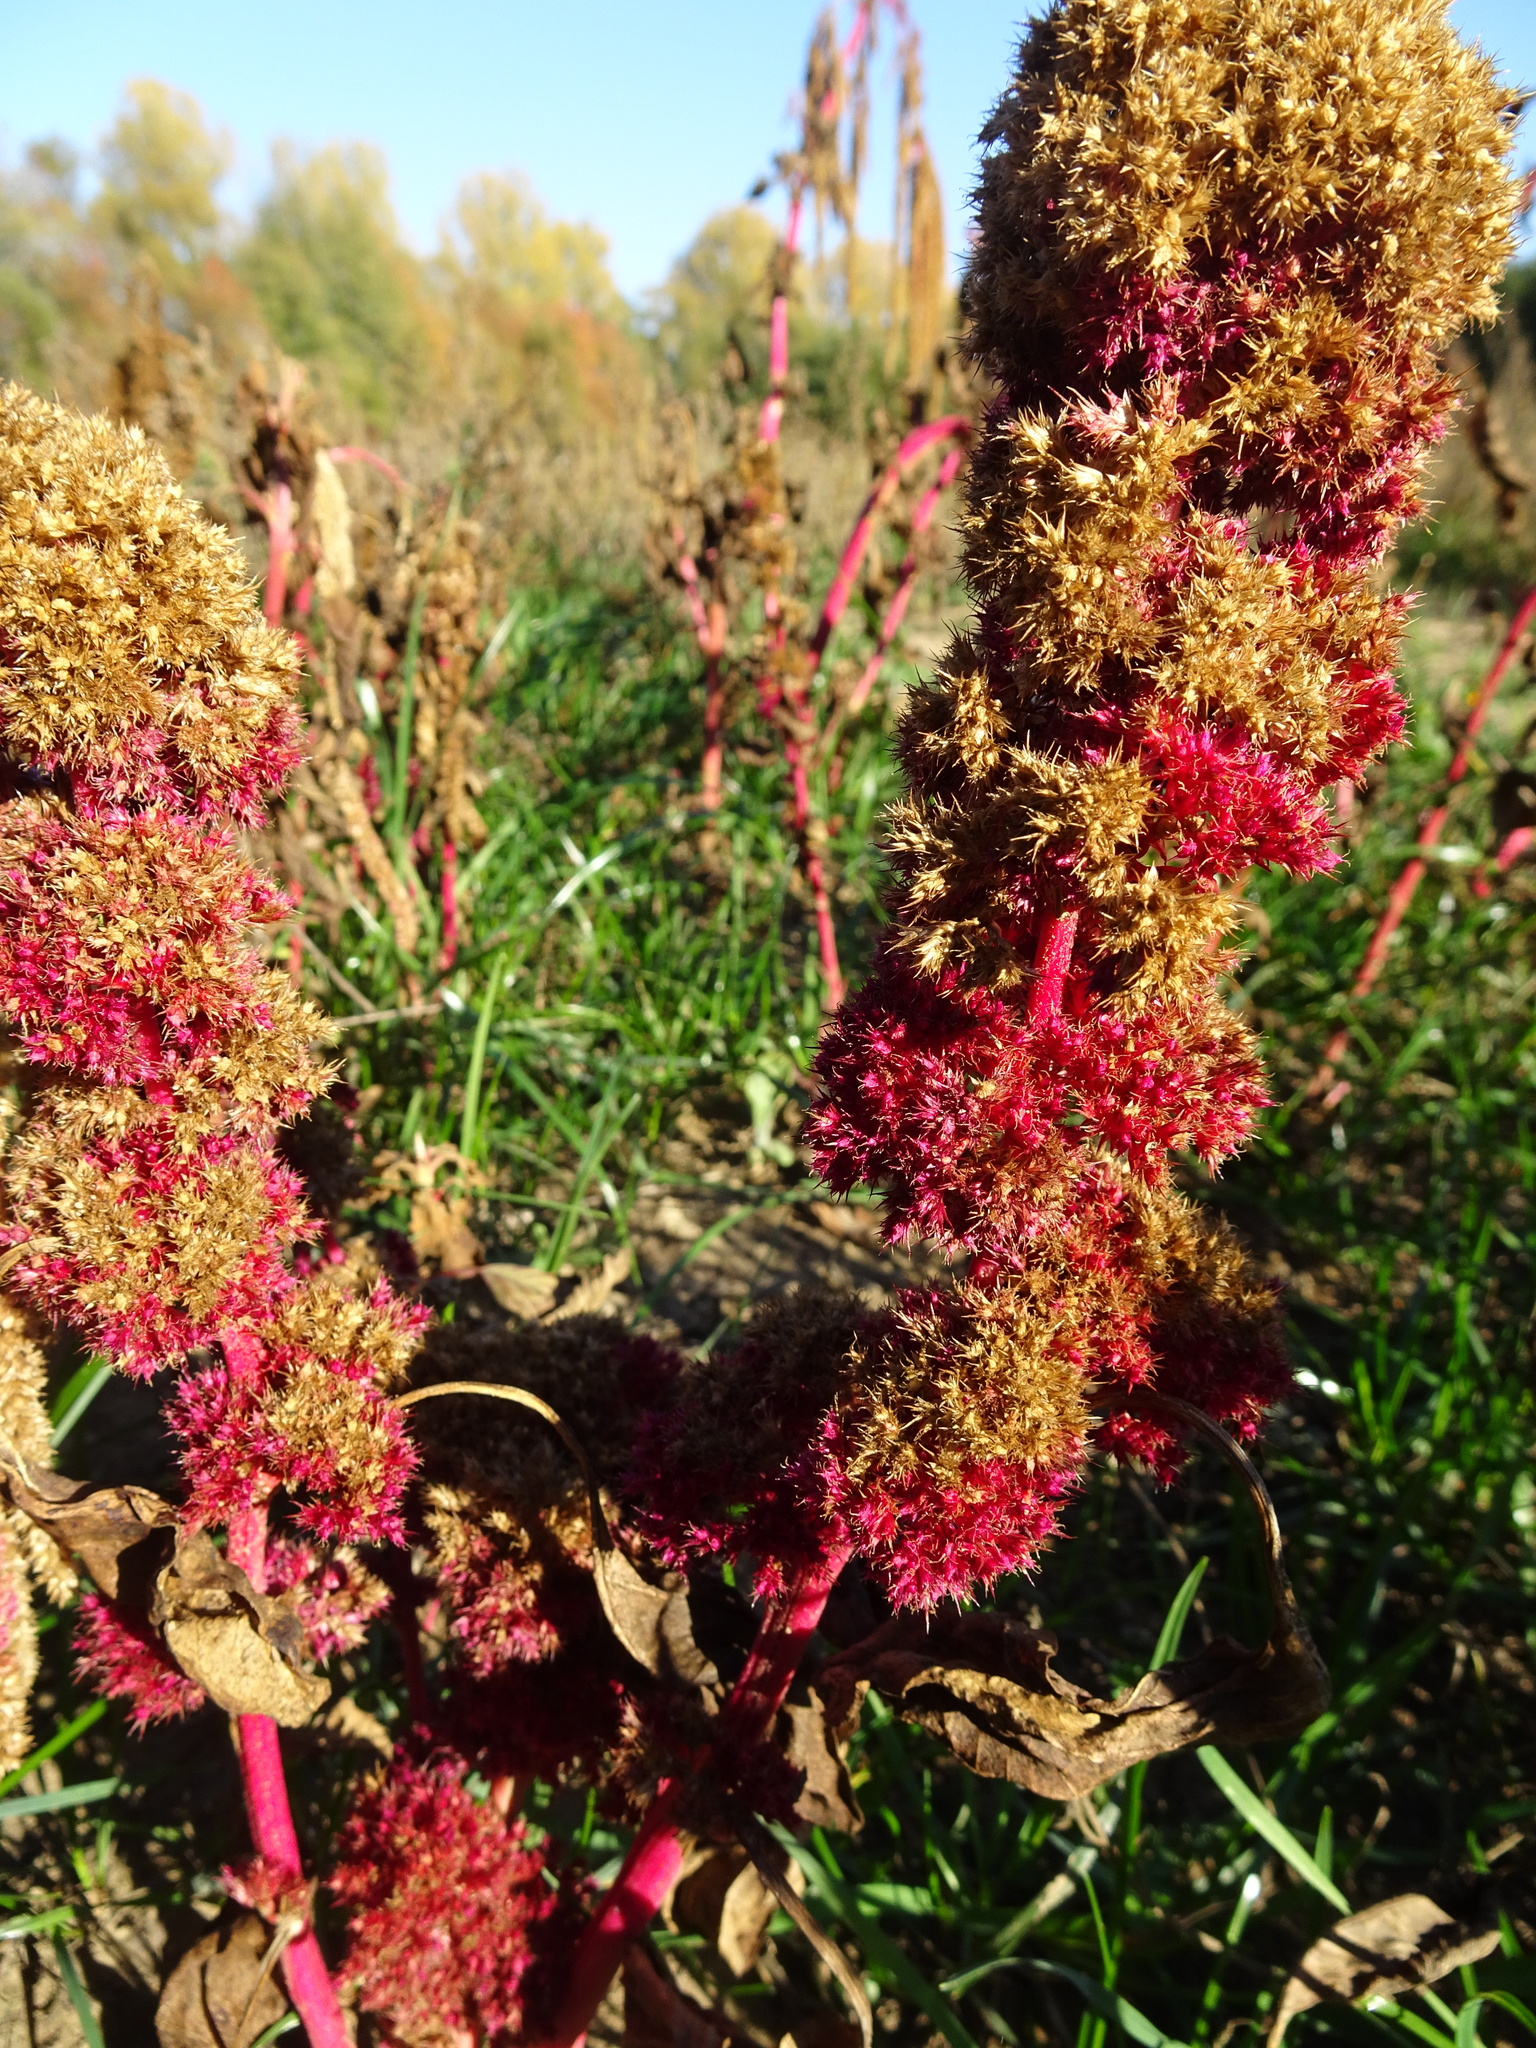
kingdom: Plantae
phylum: Tracheophyta
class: Magnoliopsida
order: Caryophyllales
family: Amaranthaceae
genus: Amaranthus
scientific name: Amaranthus cruentus
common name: Purple amaranth
